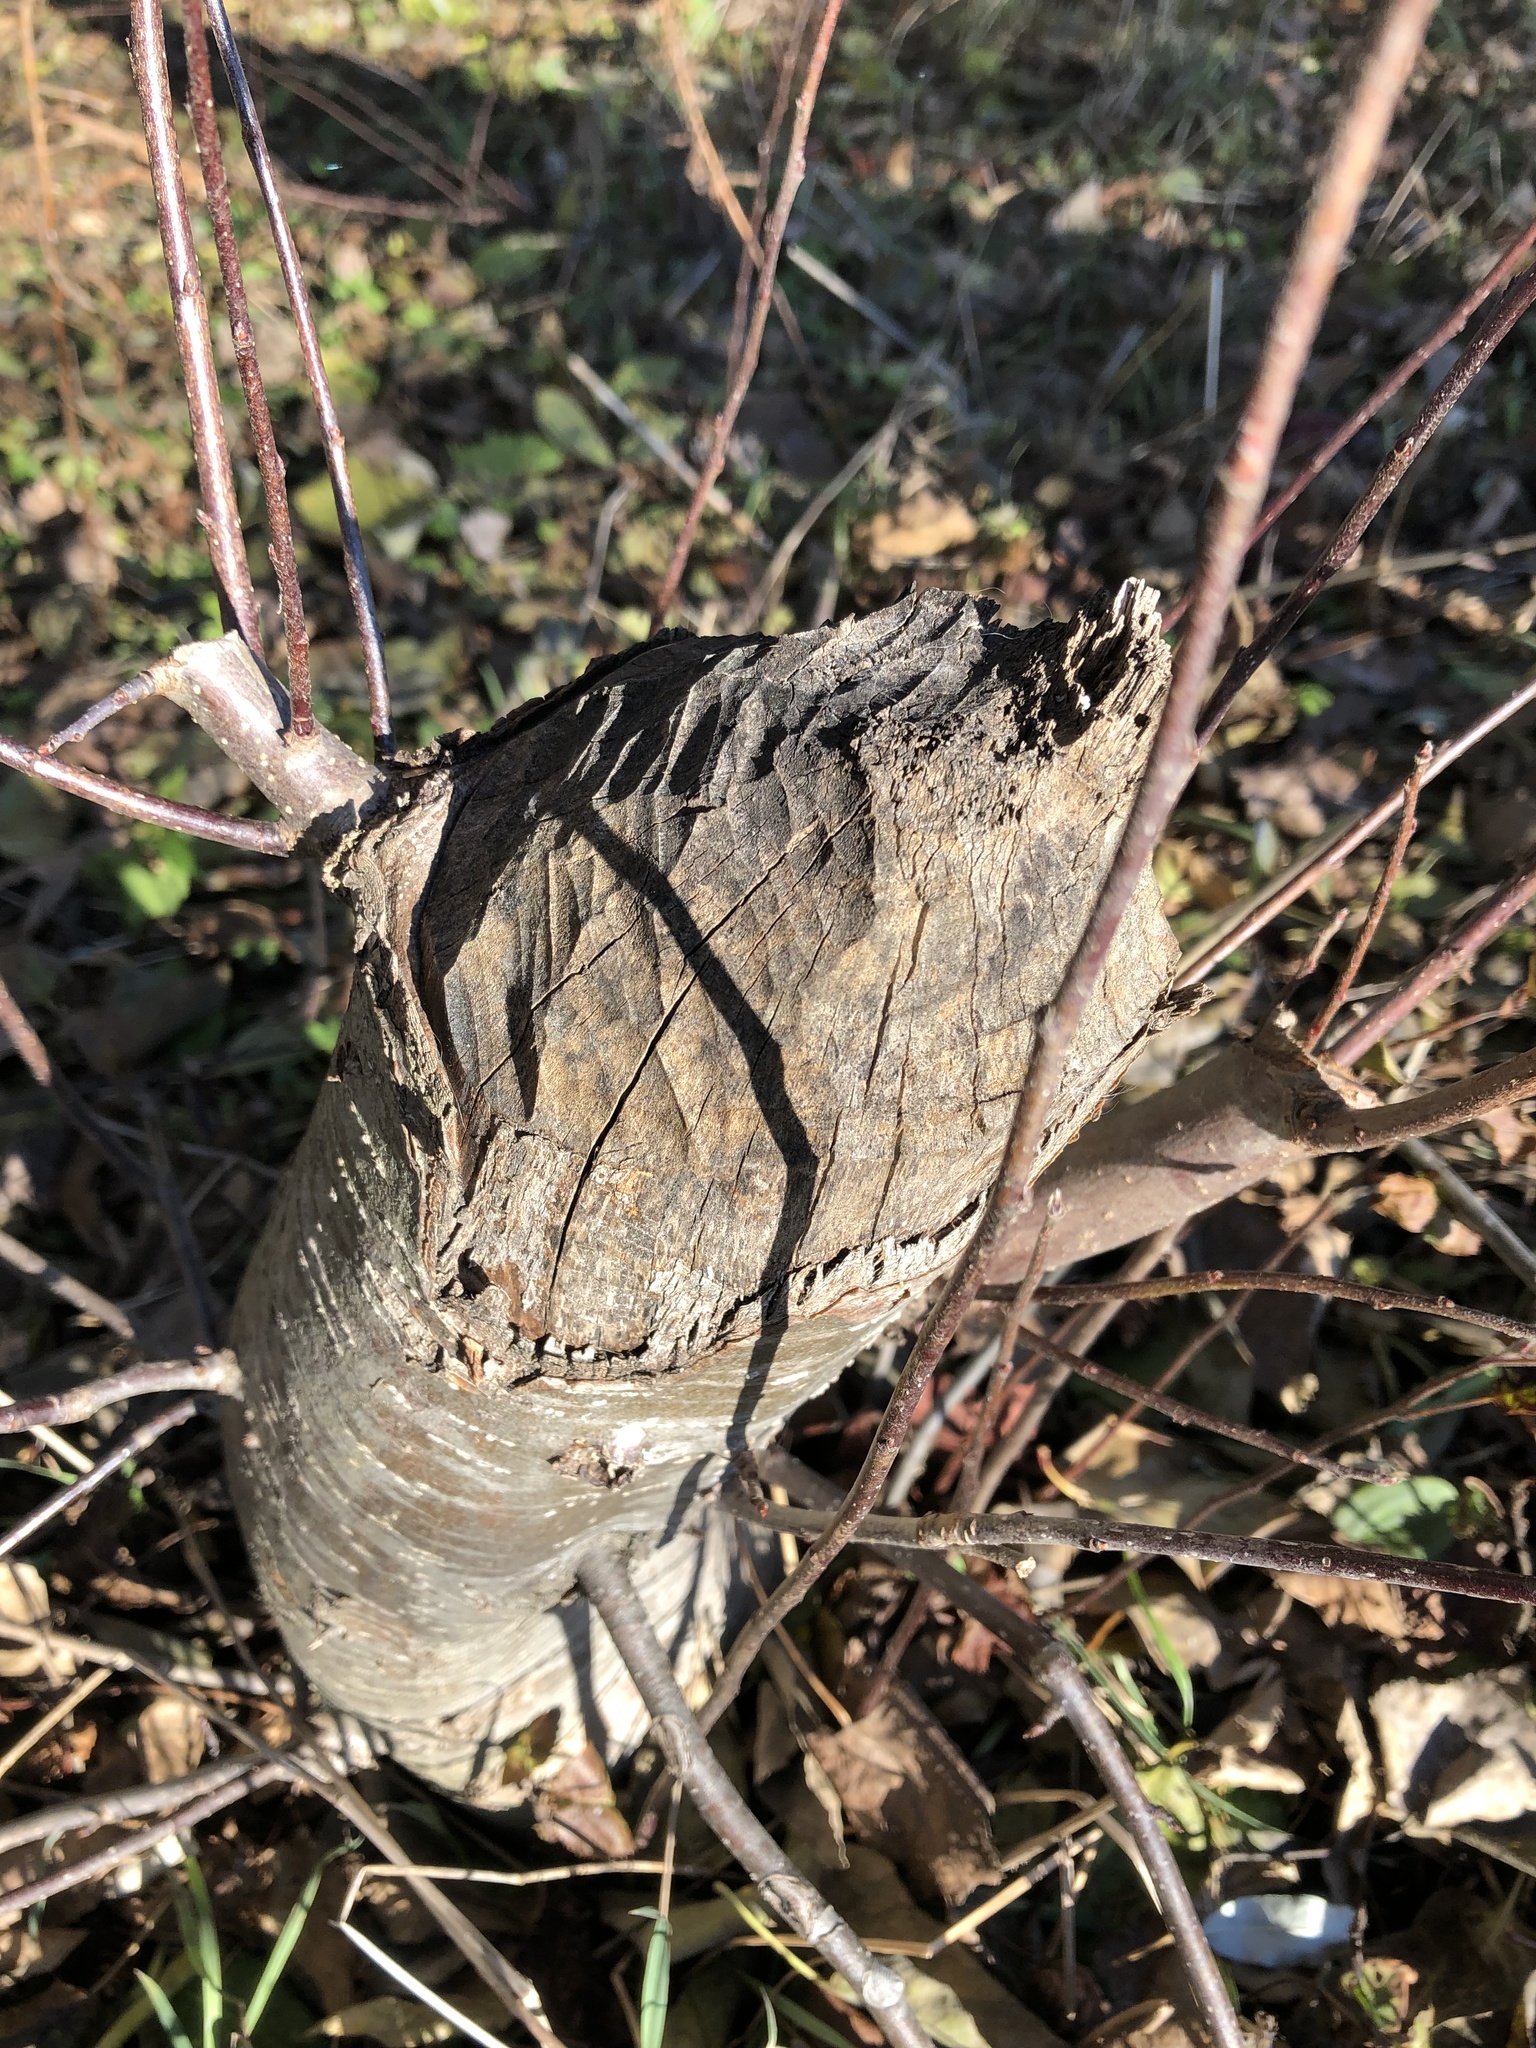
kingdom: Animalia
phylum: Chordata
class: Mammalia
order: Rodentia
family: Castoridae
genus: Castor
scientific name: Castor canadensis
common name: American beaver
